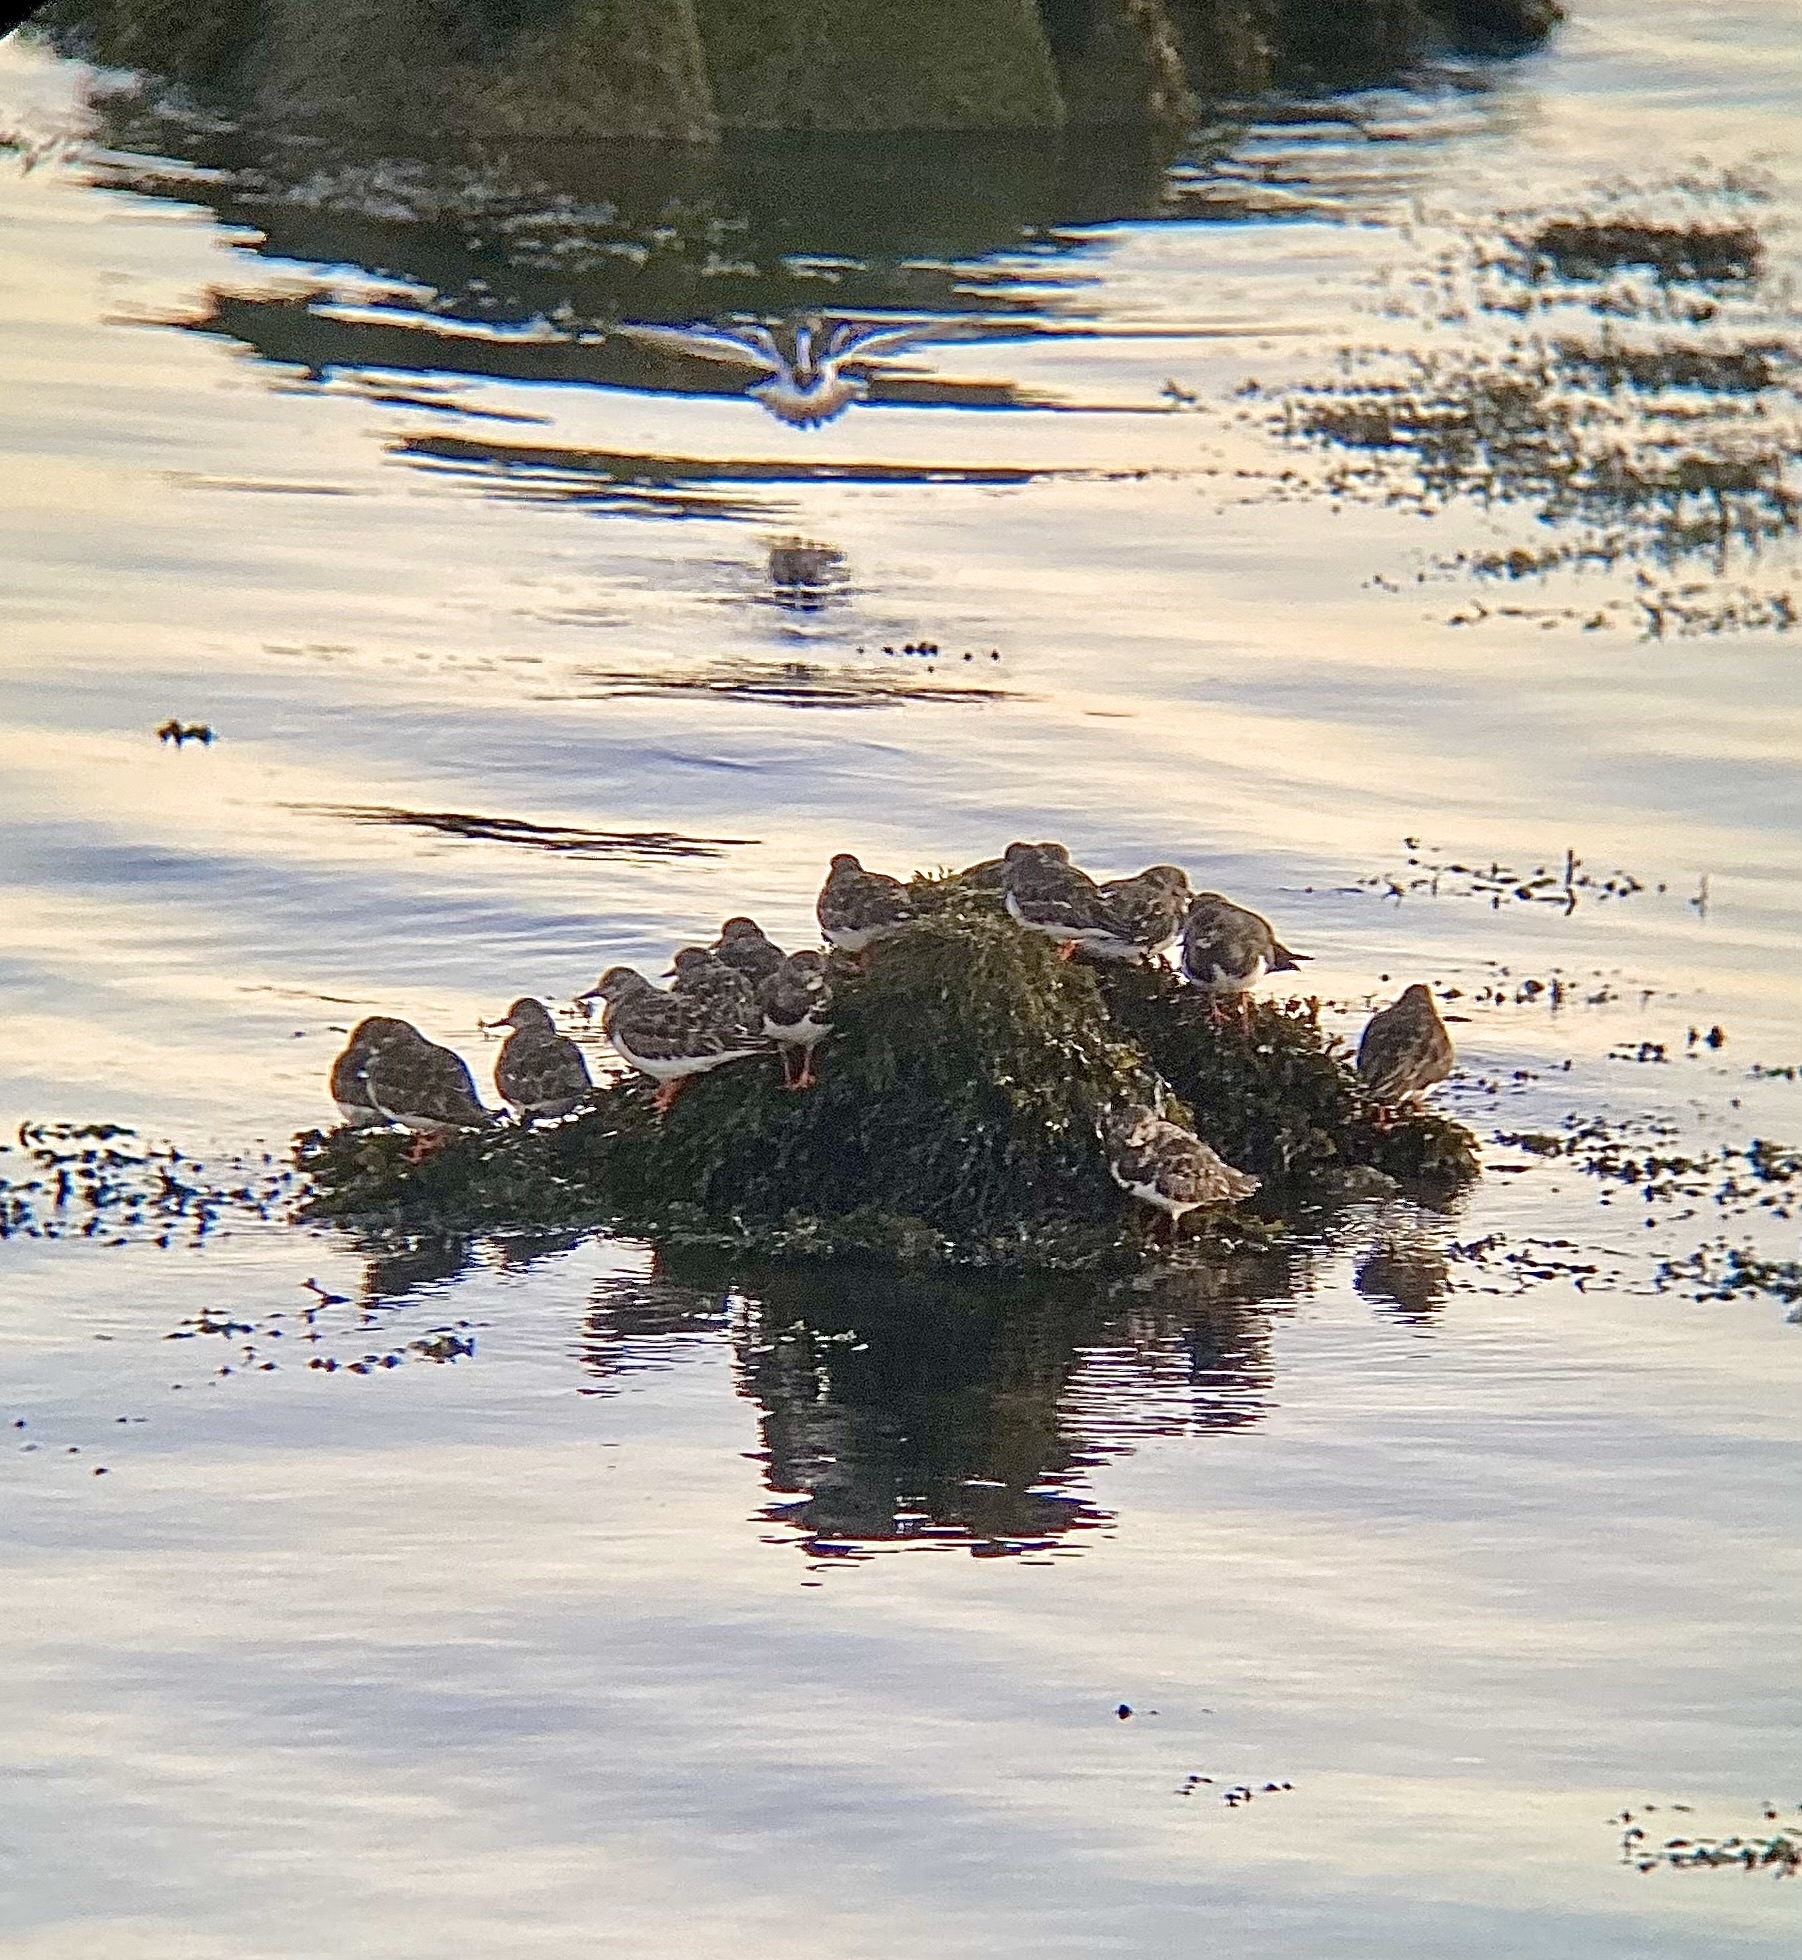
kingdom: Animalia
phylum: Chordata
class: Aves
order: Charadriiformes
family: Scolopacidae
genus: Arenaria
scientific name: Arenaria interpres
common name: Ruddy turnstone
